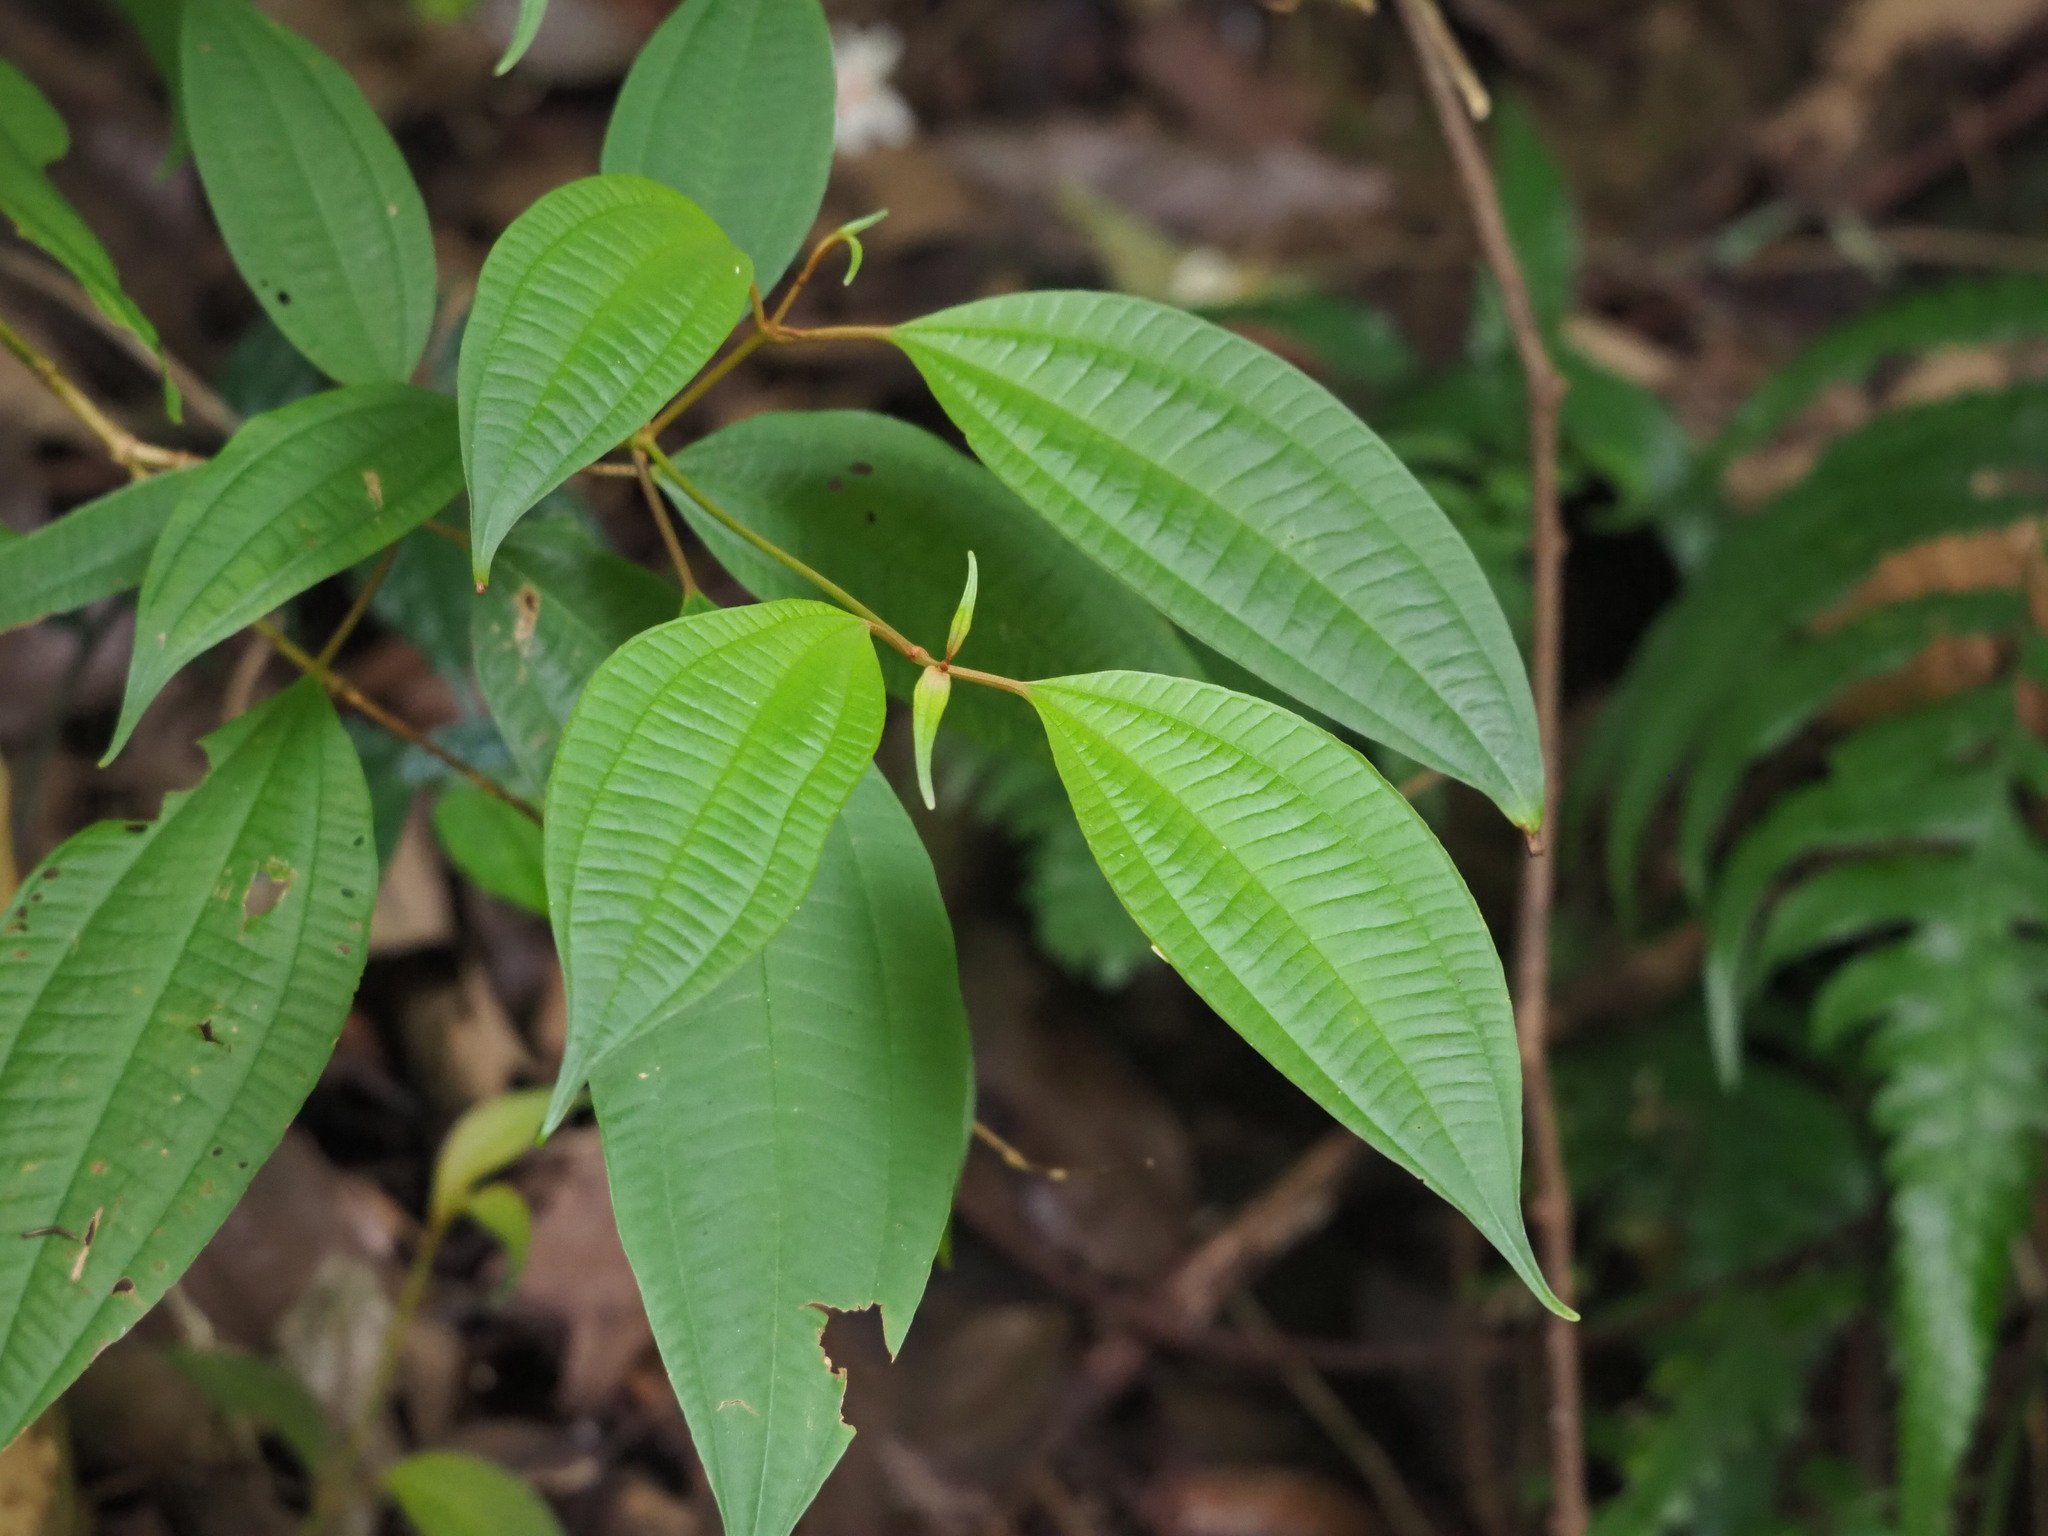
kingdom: Plantae
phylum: Tracheophyta
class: Magnoliopsida
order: Myrtales
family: Melastomataceae
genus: Blastus
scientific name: Blastus cochinchinensis
